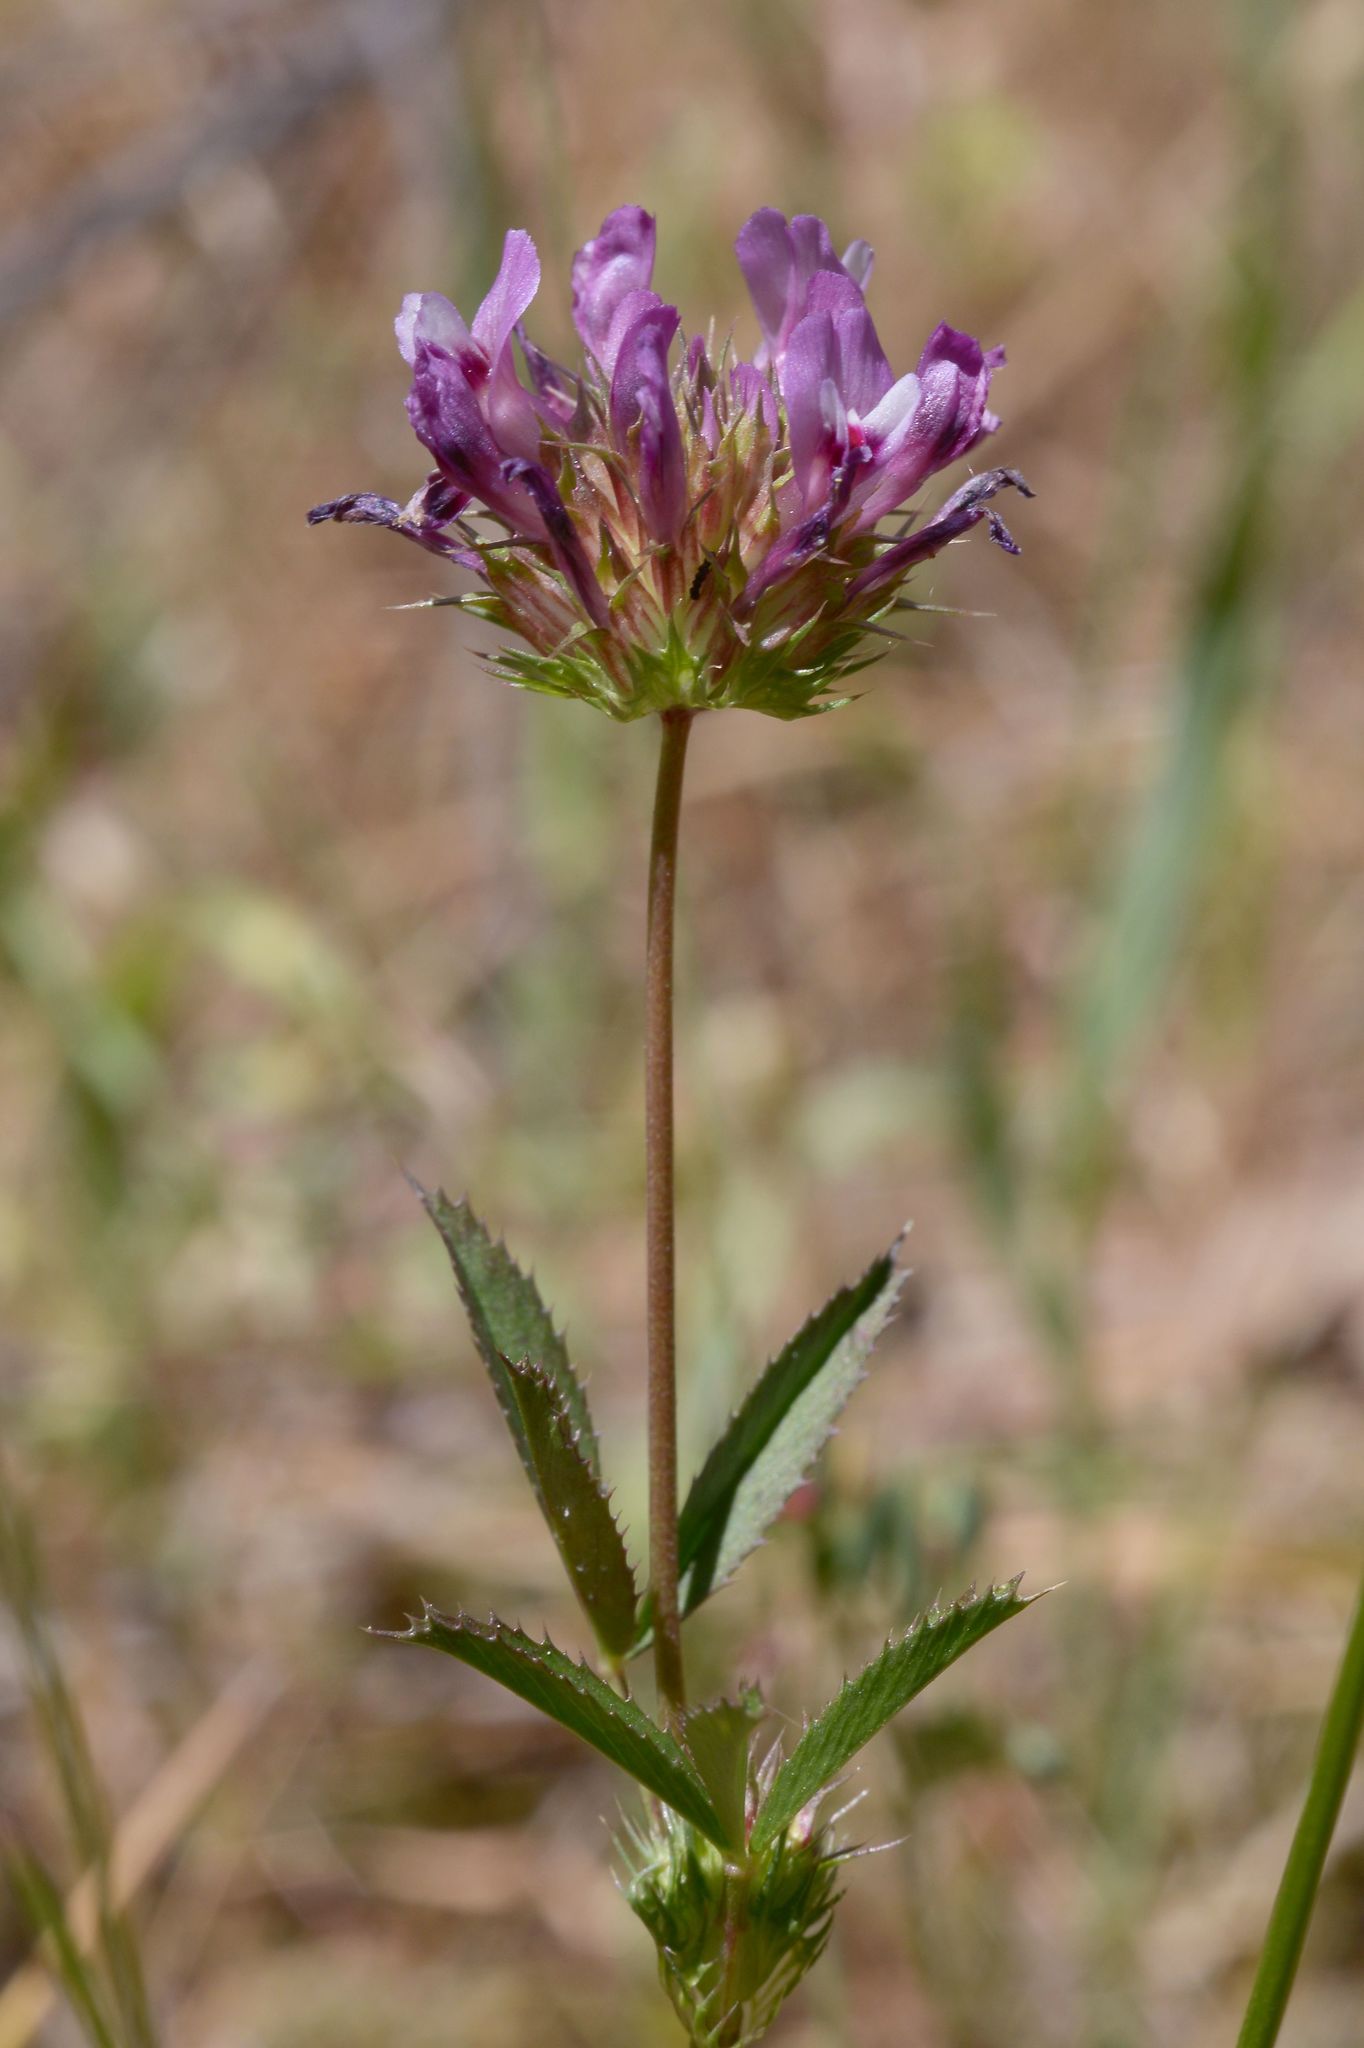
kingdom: Plantae
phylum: Tracheophyta
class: Magnoliopsida
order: Fabales
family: Fabaceae
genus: Trifolium
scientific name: Trifolium willdenovii
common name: Tomcat clover
